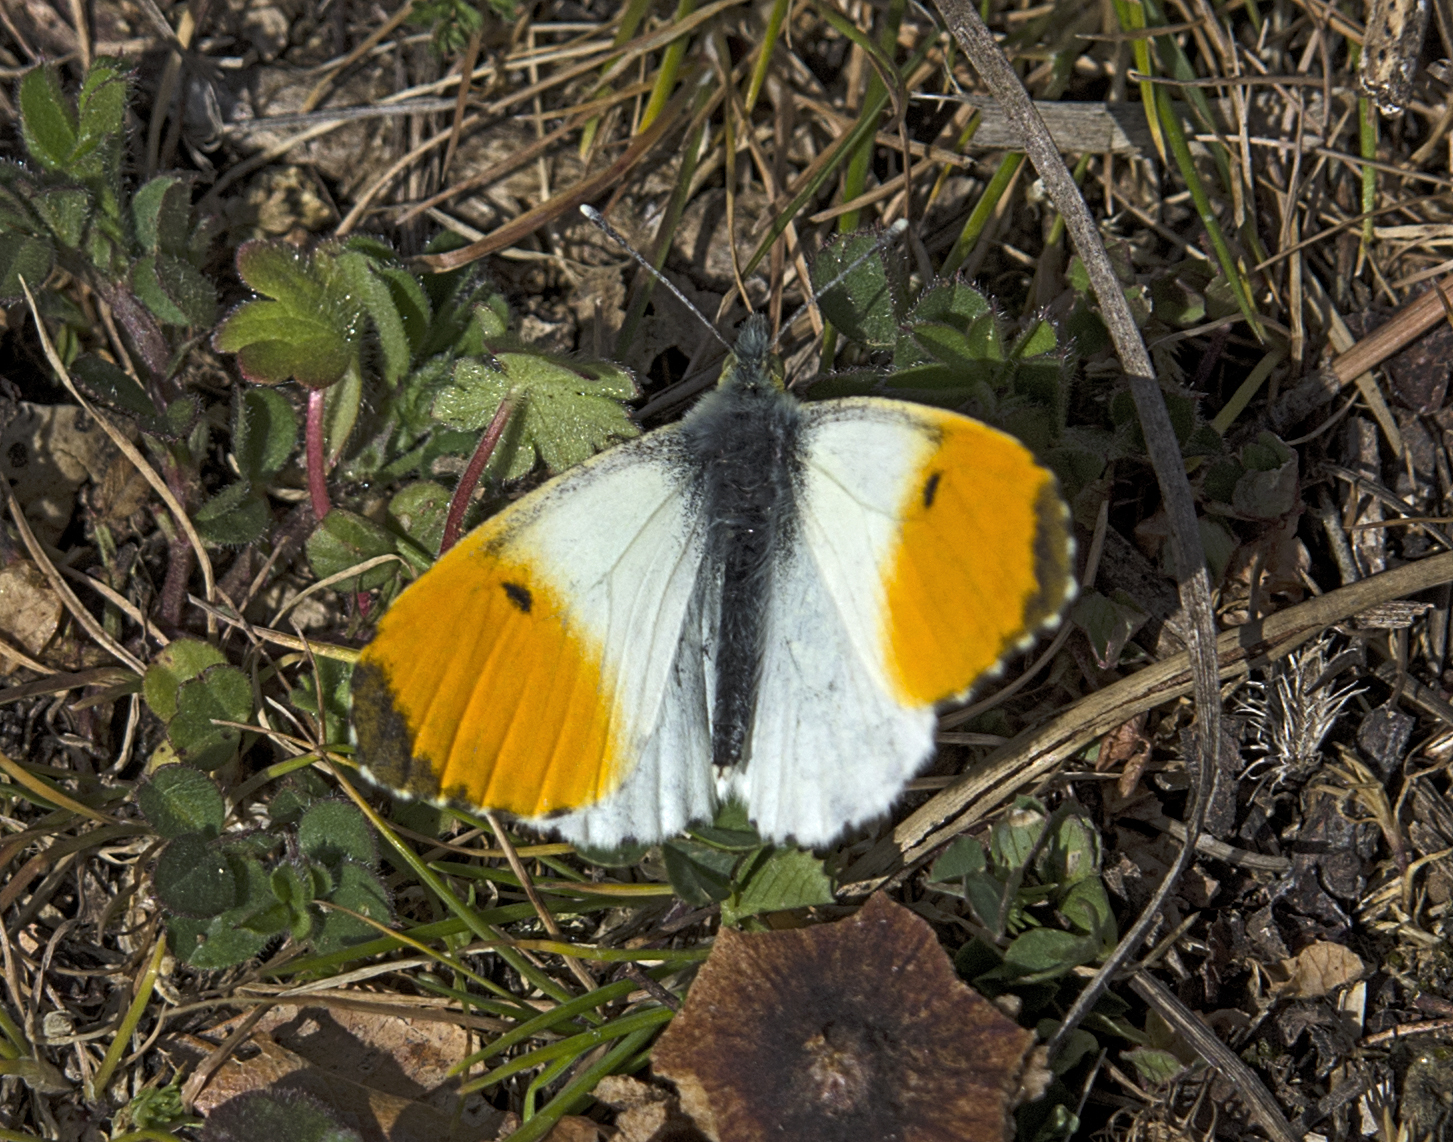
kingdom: Animalia
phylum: Arthropoda
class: Insecta
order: Lepidoptera
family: Pieridae
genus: Anthocharis
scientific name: Anthocharis cardamines
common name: Orange-tip
